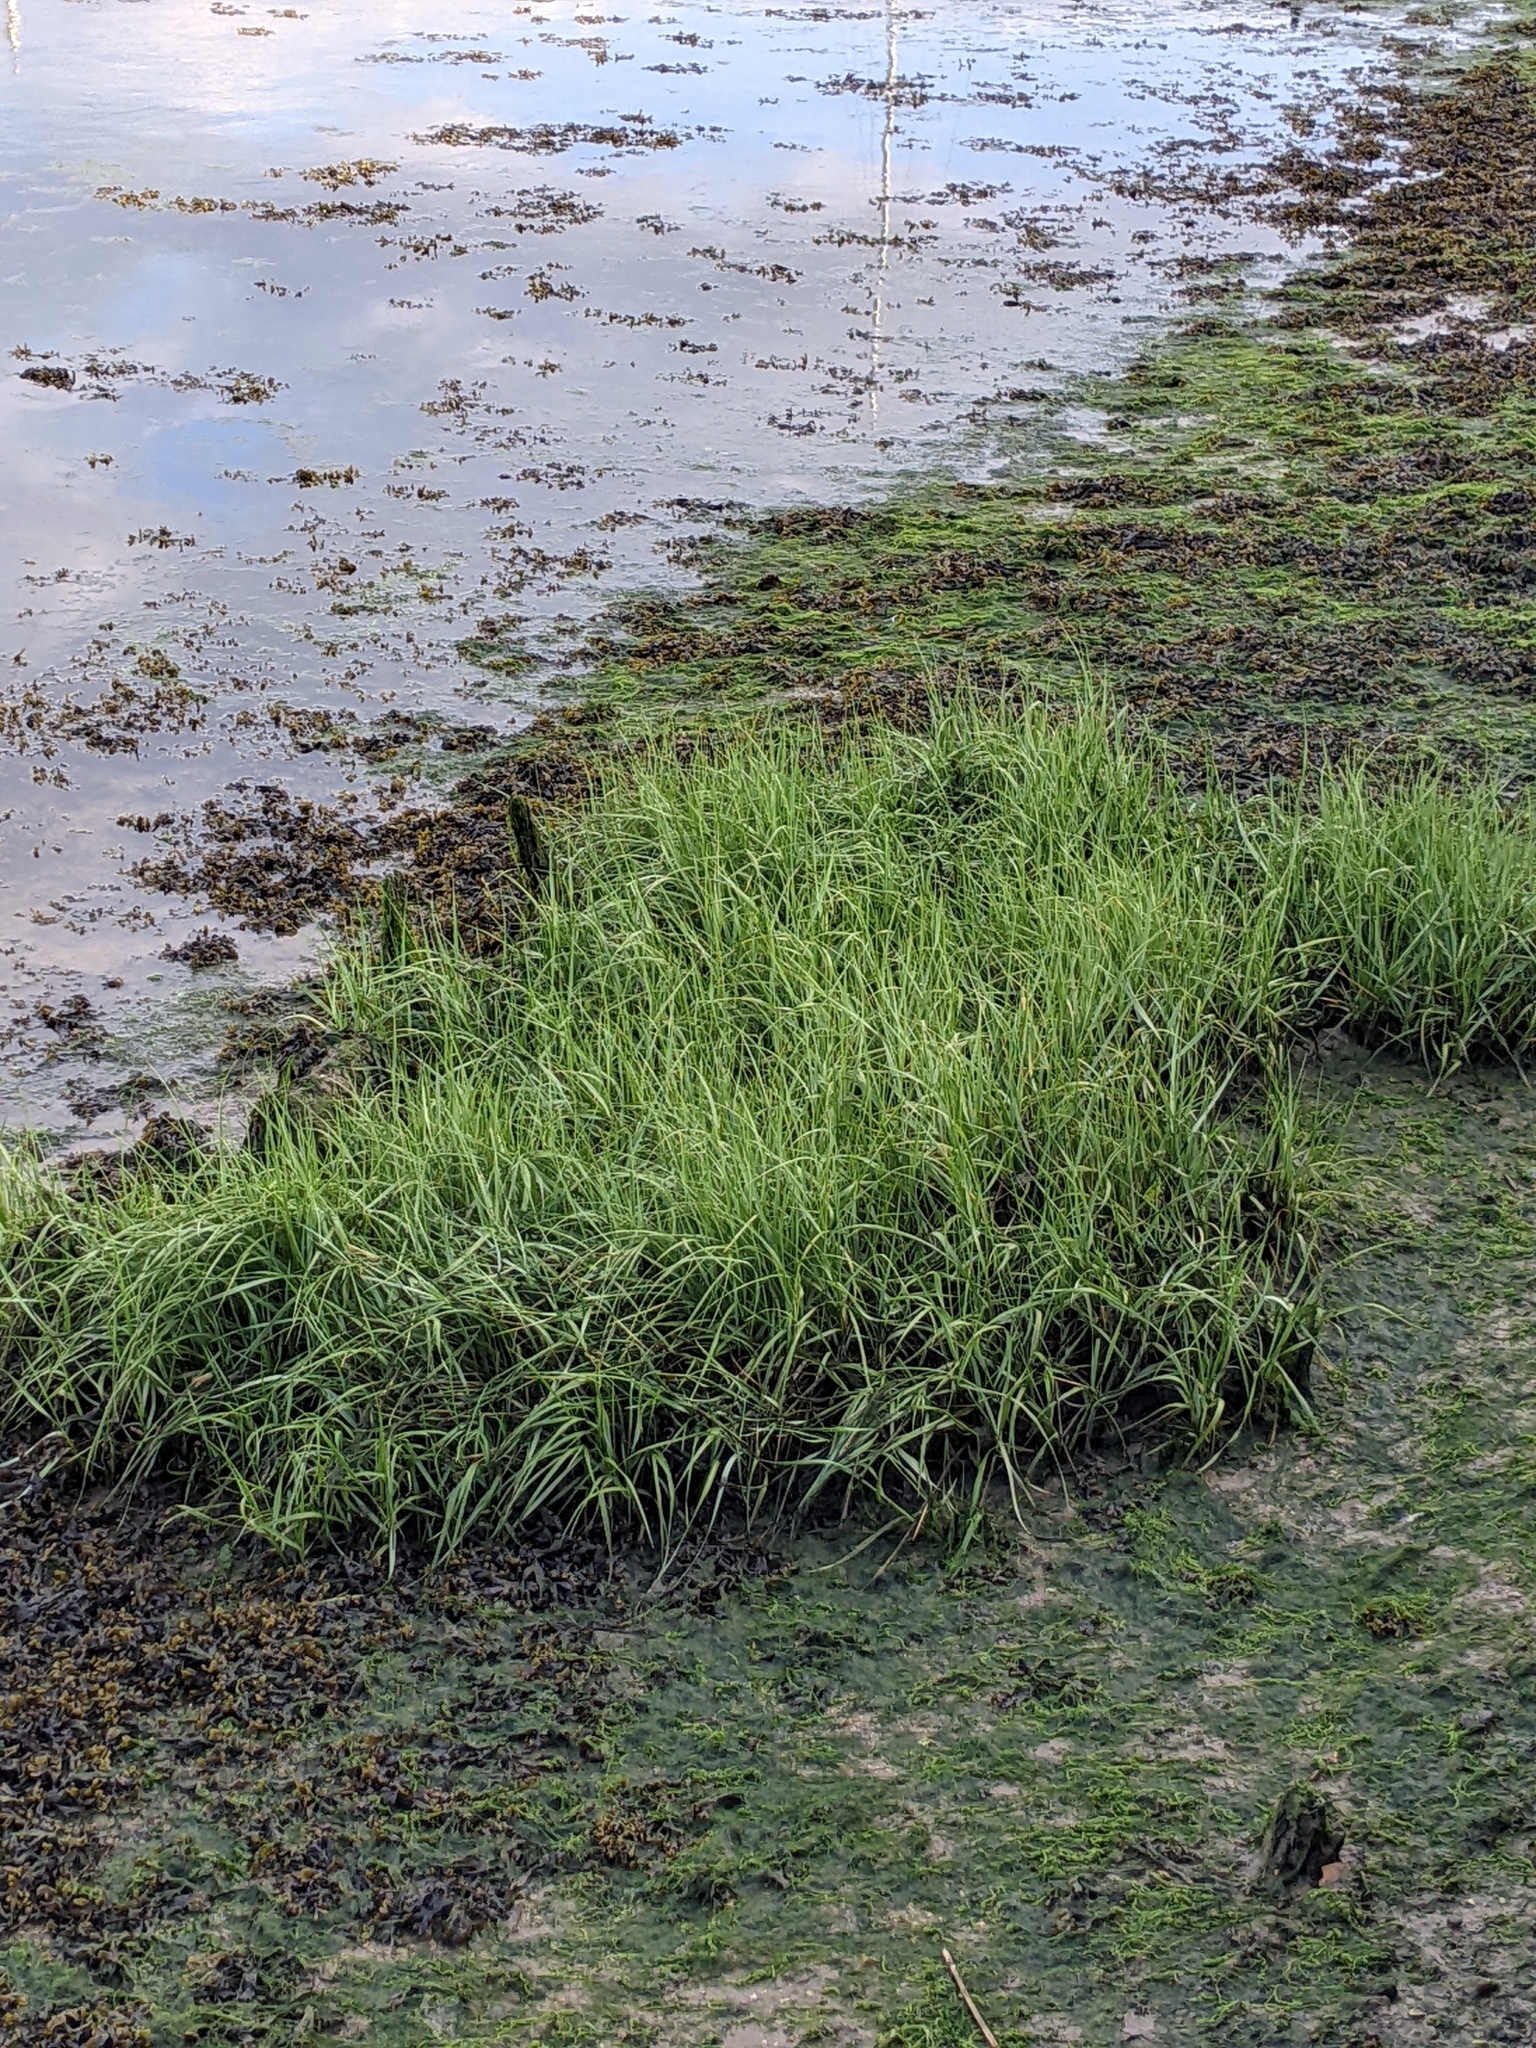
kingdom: Plantae
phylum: Tracheophyta
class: Liliopsida
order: Poales
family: Poaceae
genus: Sporobolus
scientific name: Sporobolus anglicus
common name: English cordgrass
